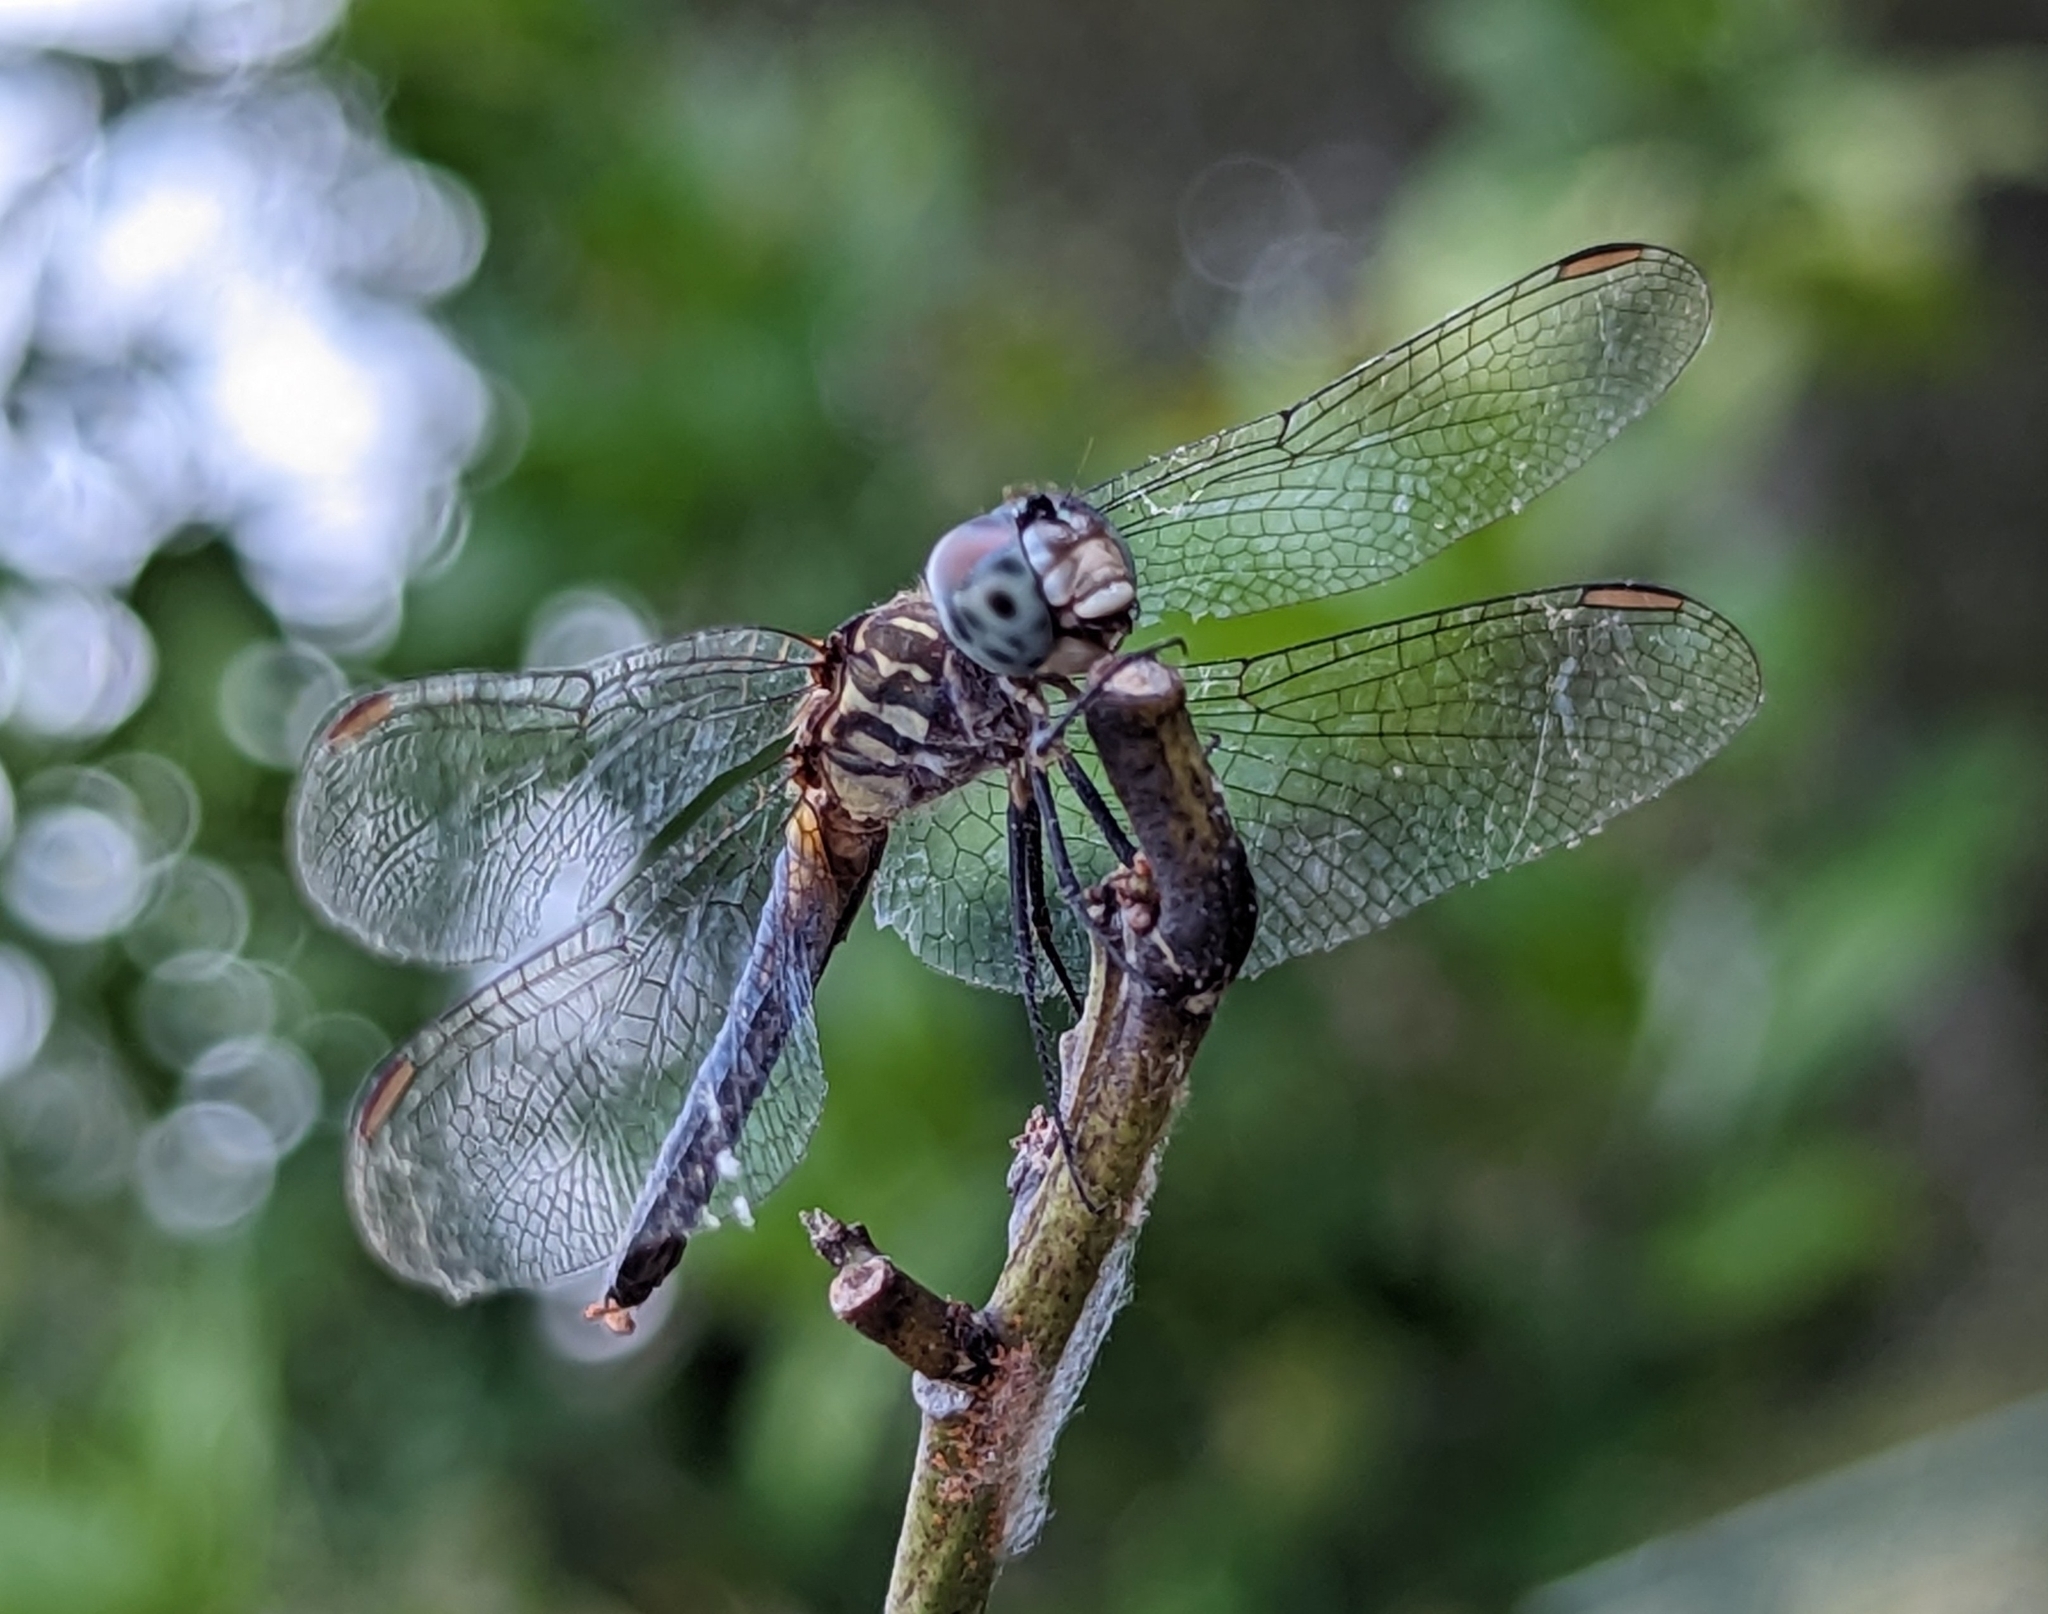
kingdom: Animalia
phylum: Arthropoda
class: Insecta
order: Odonata
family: Libellulidae
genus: Pachydiplax
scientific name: Pachydiplax longipennis
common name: Blue dasher
